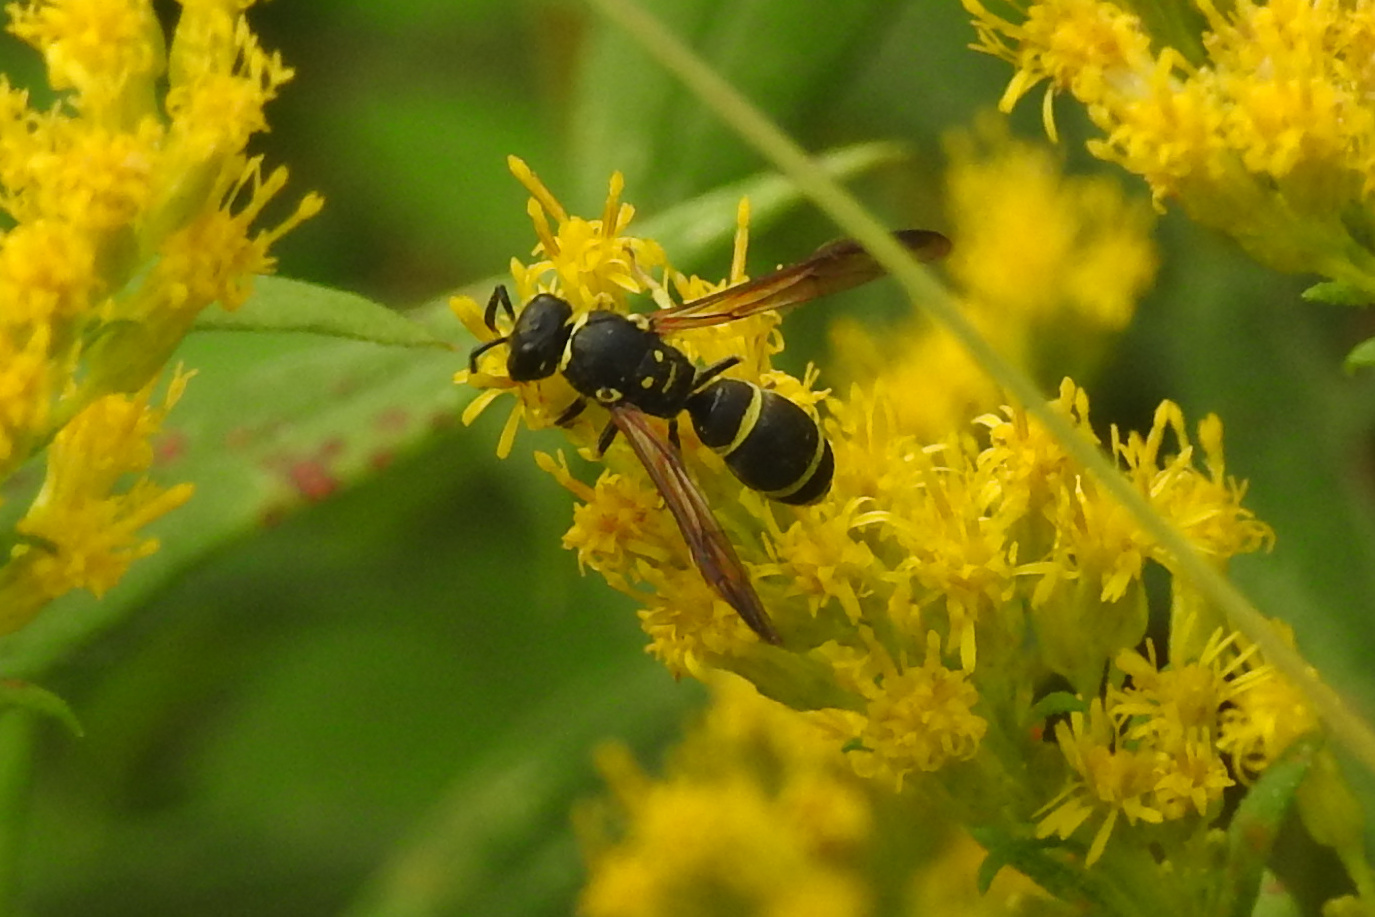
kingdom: Animalia
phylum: Arthropoda
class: Insecta
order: Hymenoptera
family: Vespidae
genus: Ancistrocerus
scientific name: Ancistrocerus adiabatus
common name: Bramble mason wasp
